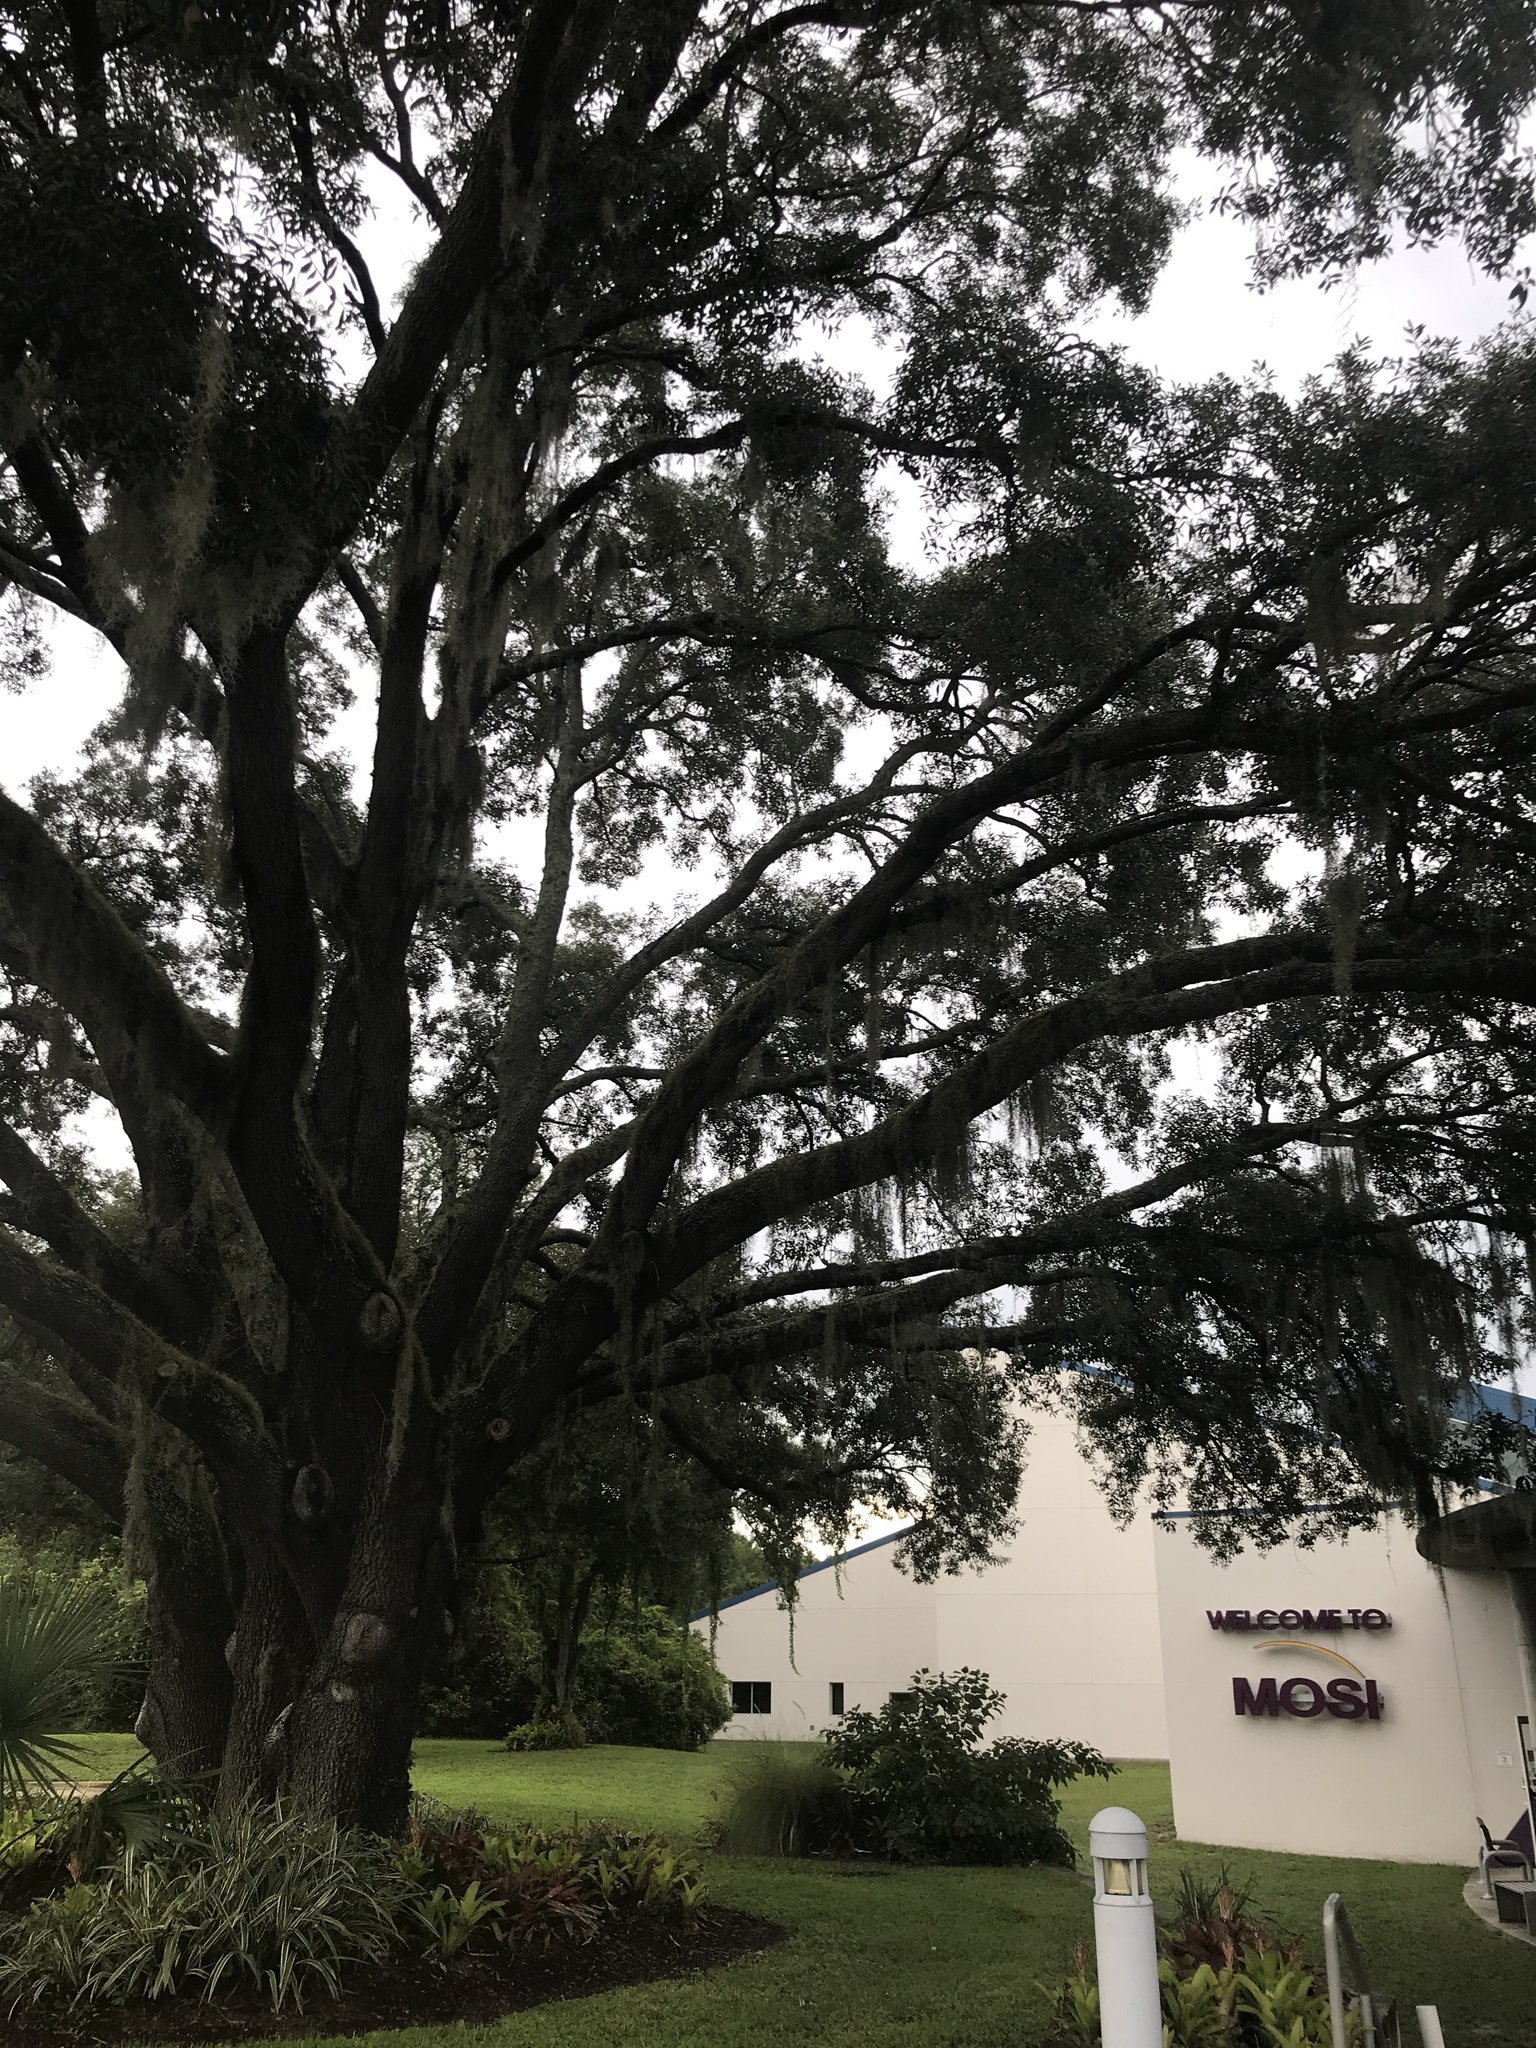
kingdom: Plantae
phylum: Tracheophyta
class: Liliopsida
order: Poales
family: Bromeliaceae
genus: Tillandsia
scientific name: Tillandsia usneoides
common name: Spanish moss
